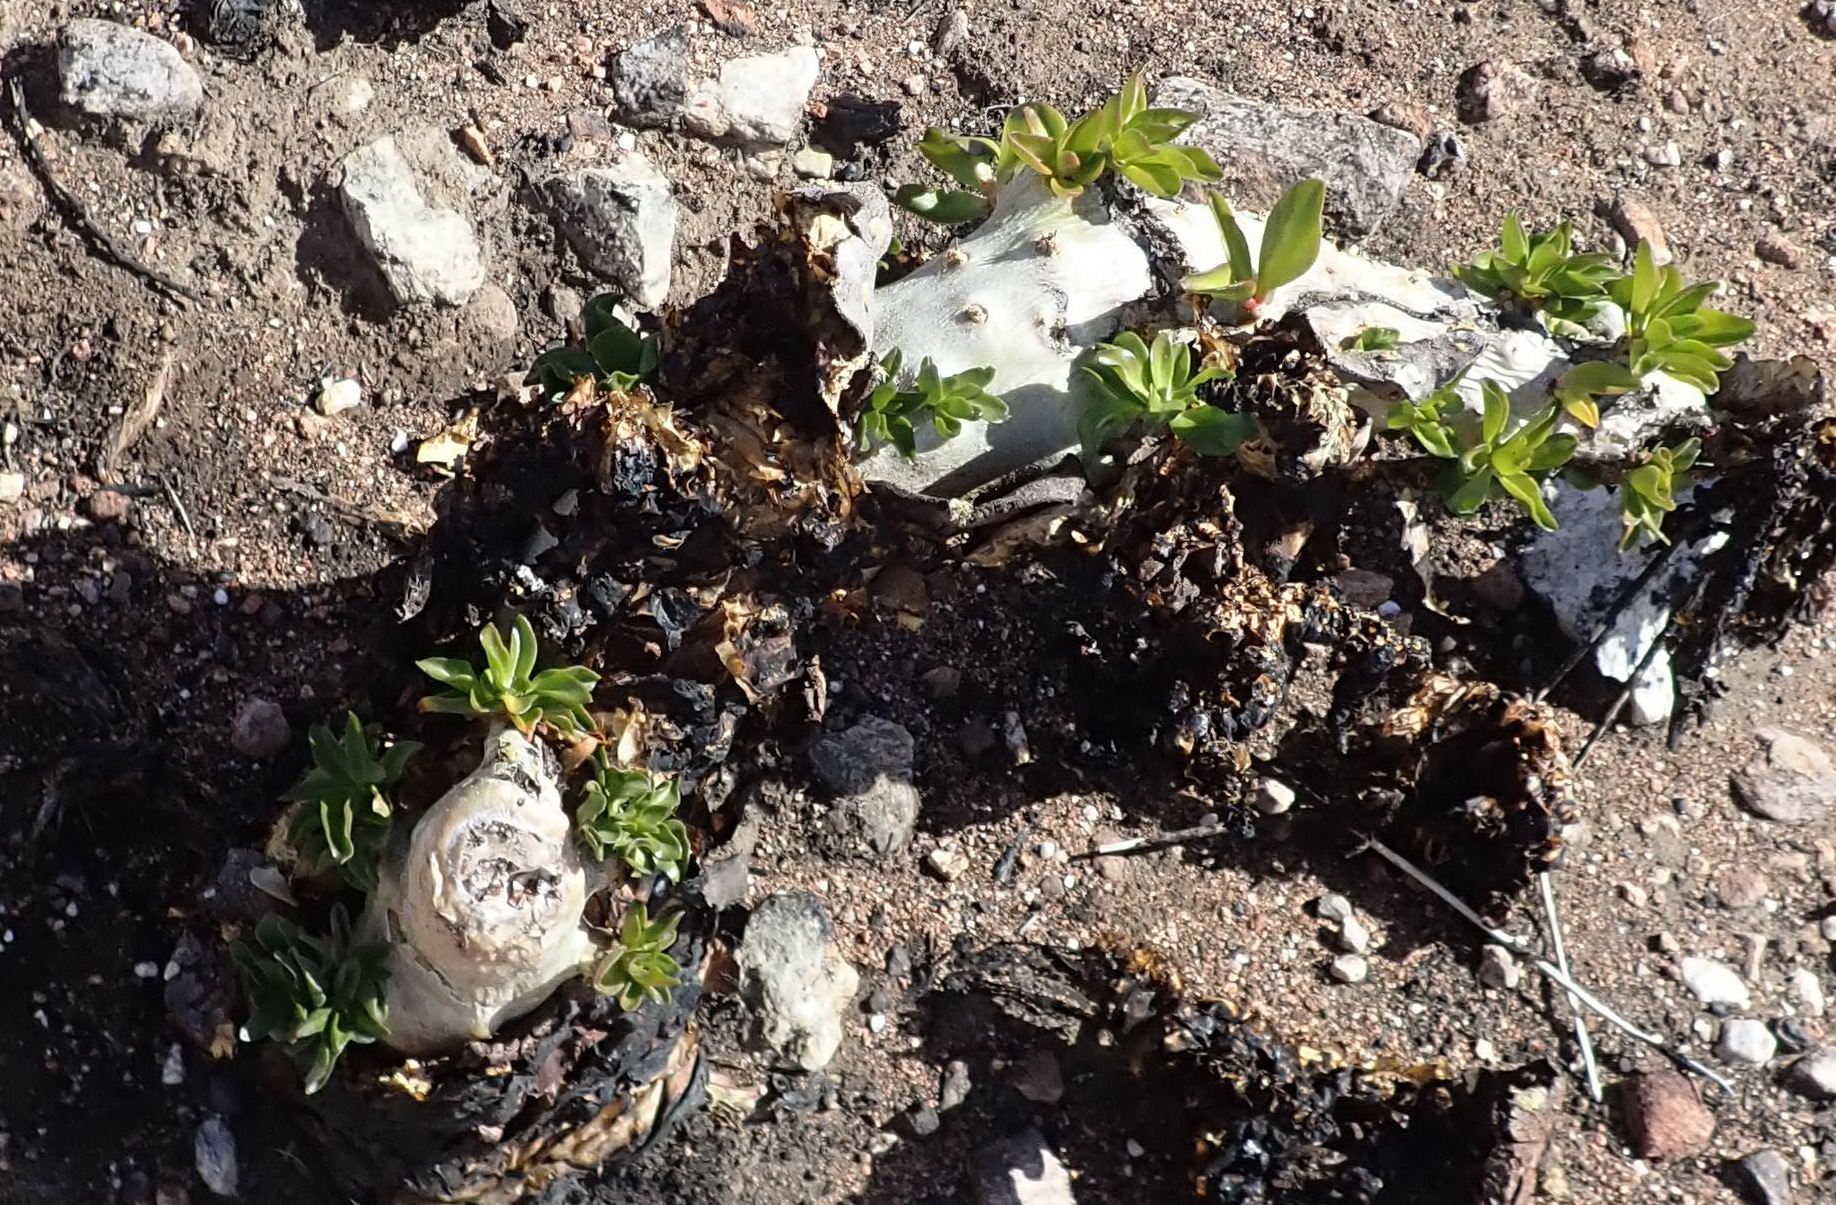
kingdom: Plantae
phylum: Tracheophyta
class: Magnoliopsida
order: Saxifragales
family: Crassulaceae
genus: Tylecodon
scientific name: Tylecodon paniculatus
